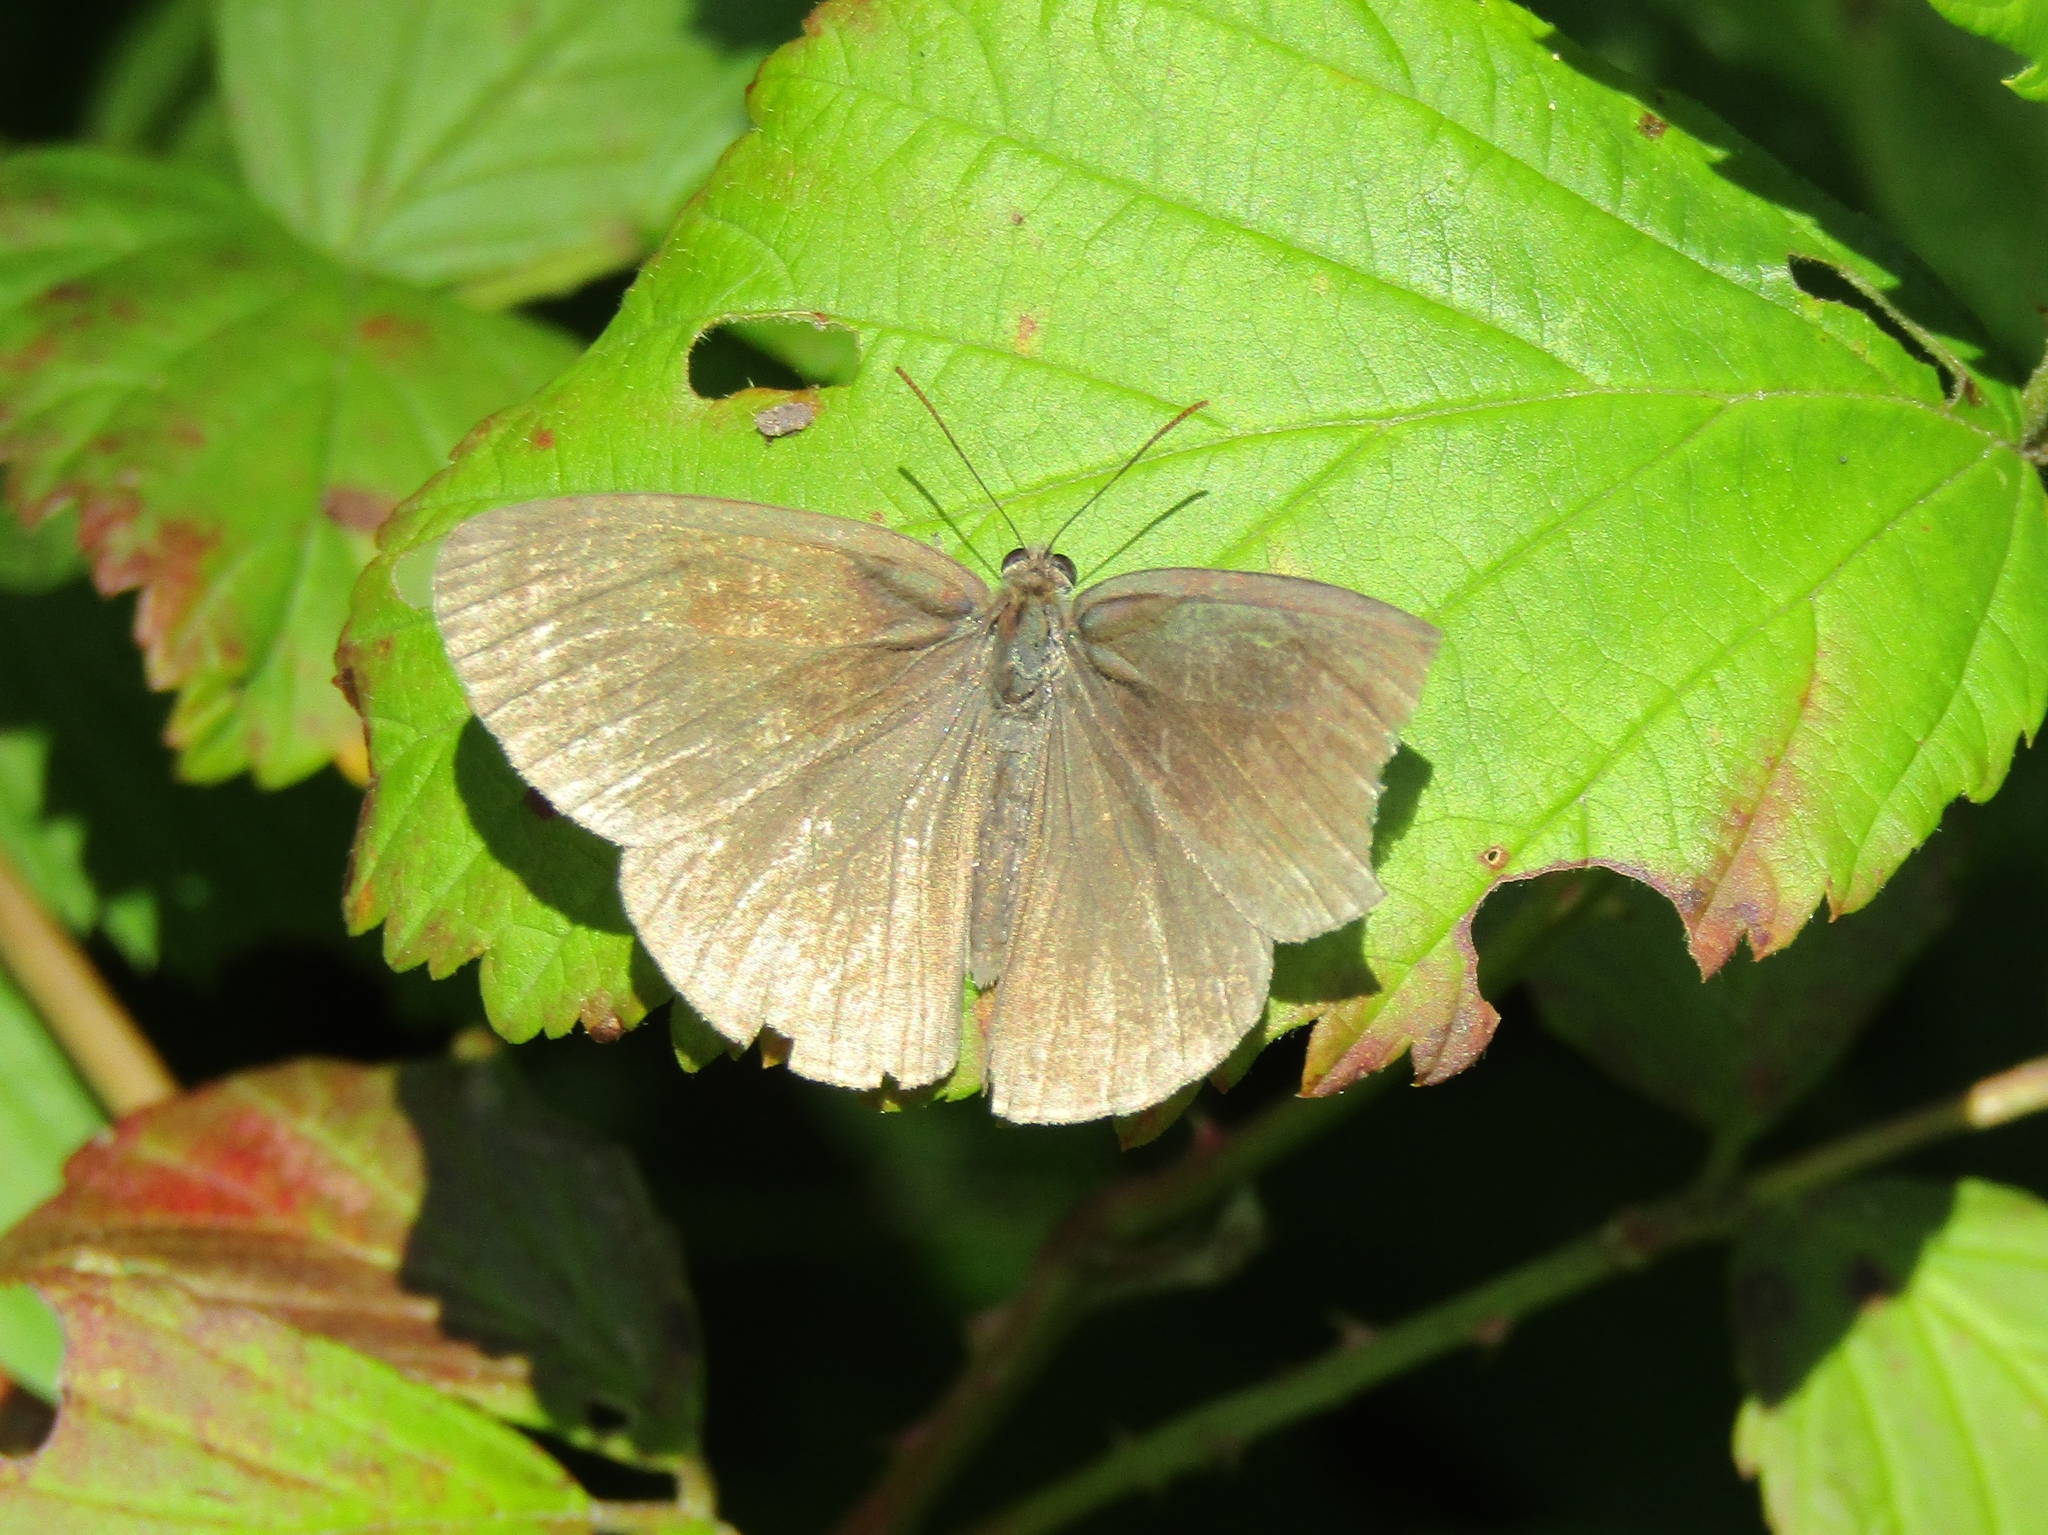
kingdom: Animalia
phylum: Arthropoda
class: Insecta
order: Lepidoptera
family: Nymphalidae
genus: Hermeuptychia
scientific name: Hermeuptychia hermes
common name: Hermes satyr
